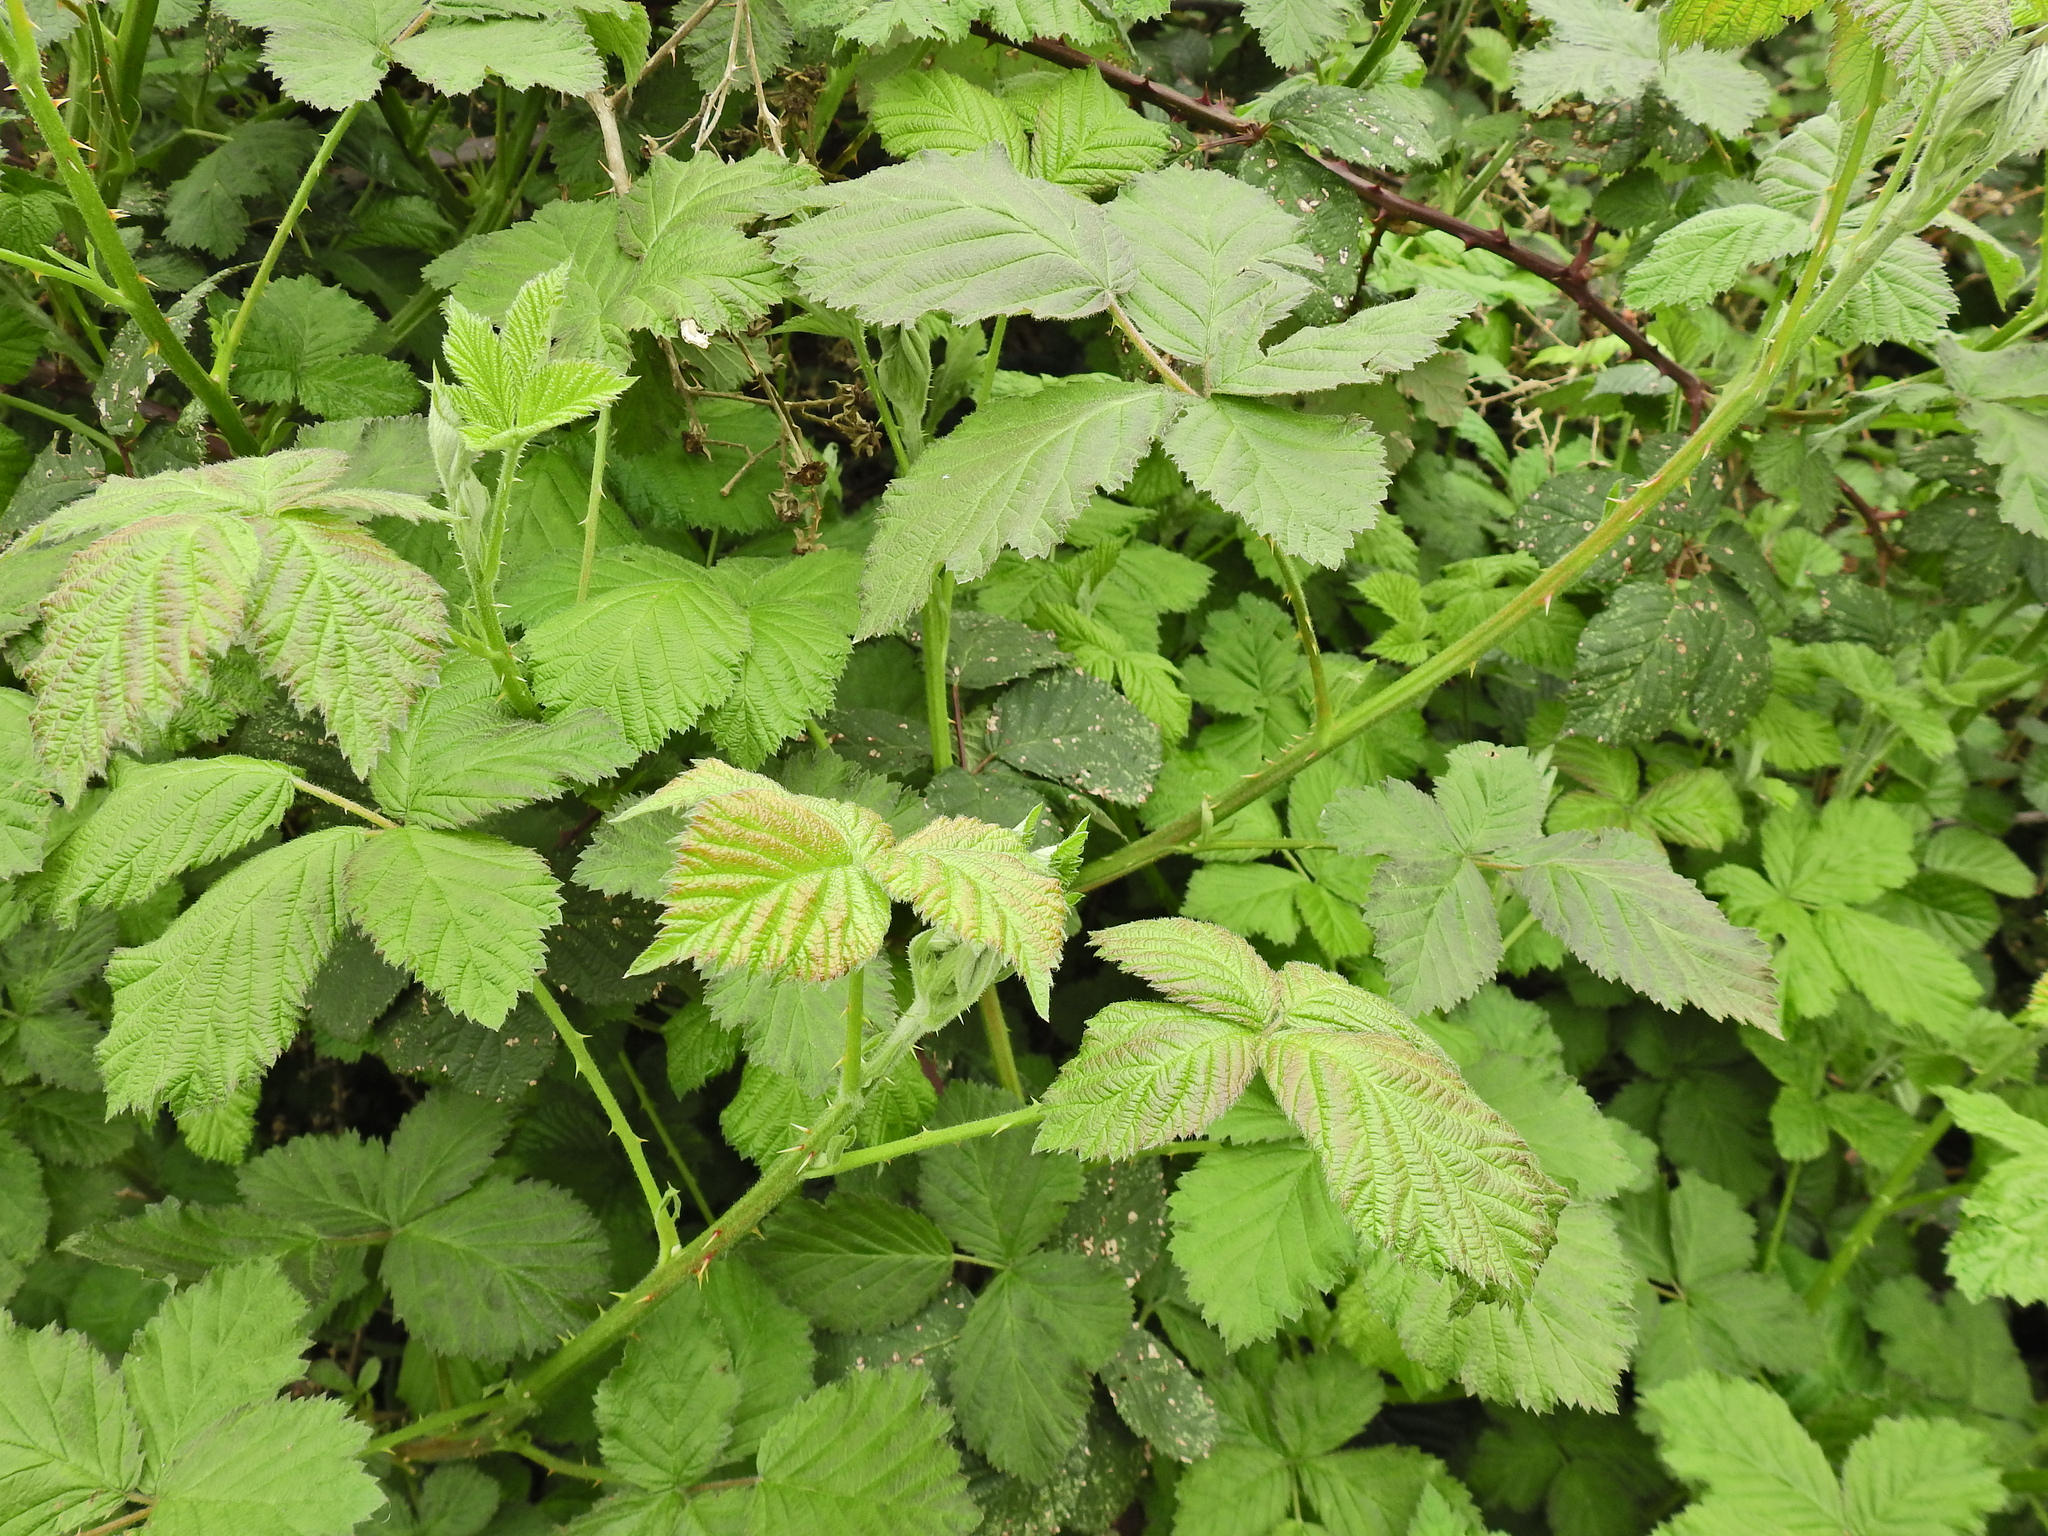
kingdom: Plantae
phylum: Tracheophyta
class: Magnoliopsida
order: Rosales
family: Rosaceae
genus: Rubus
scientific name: Rubus armeniacus
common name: Himalayan blackberry
